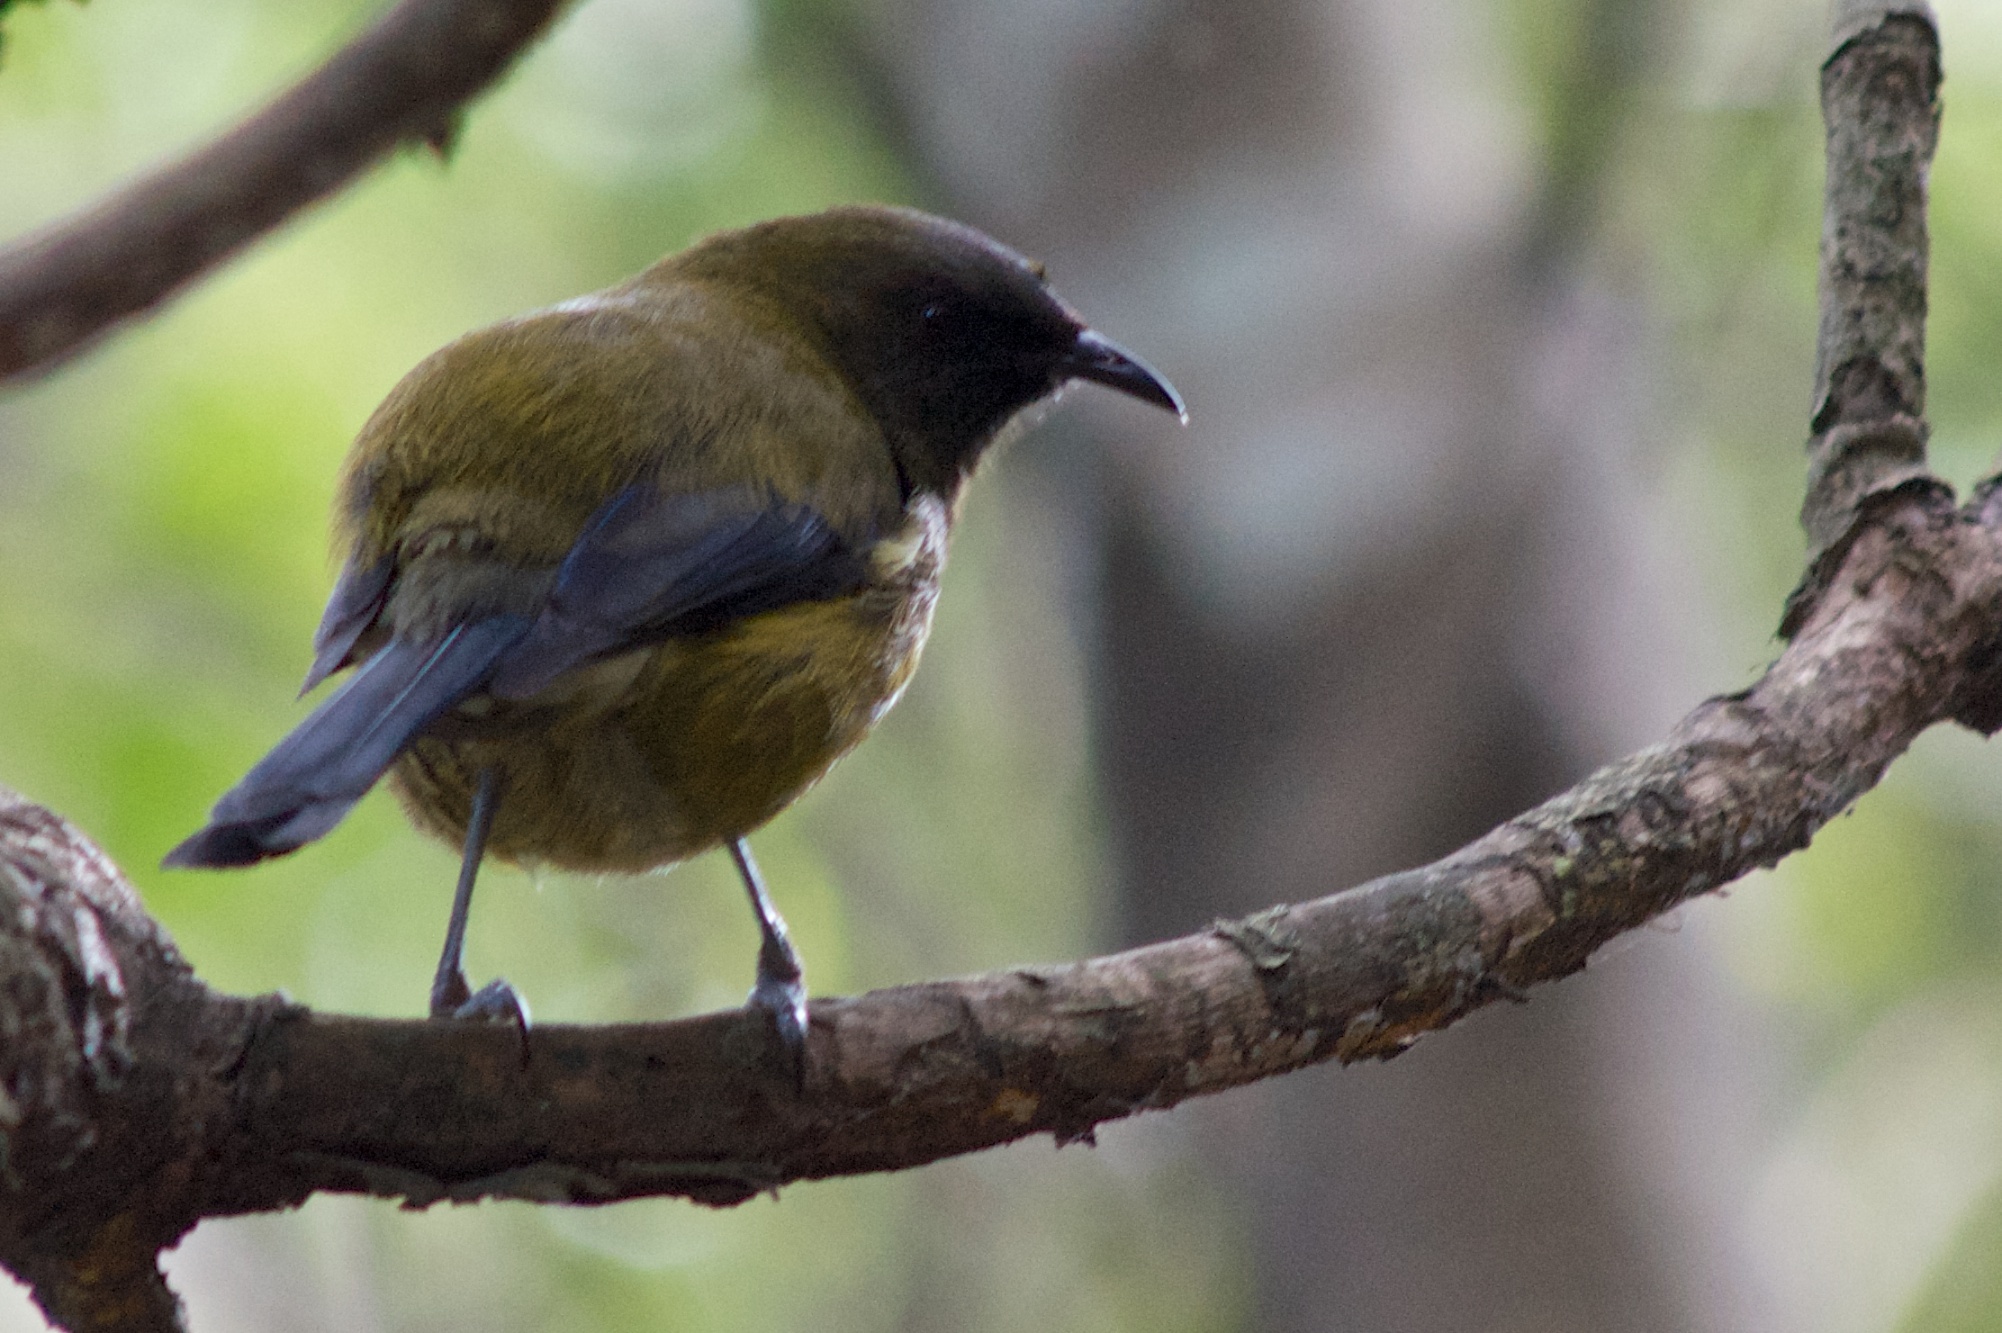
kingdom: Animalia
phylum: Chordata
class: Aves
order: Passeriformes
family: Meliphagidae
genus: Anthornis
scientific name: Anthornis melanura
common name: New zealand bellbird
